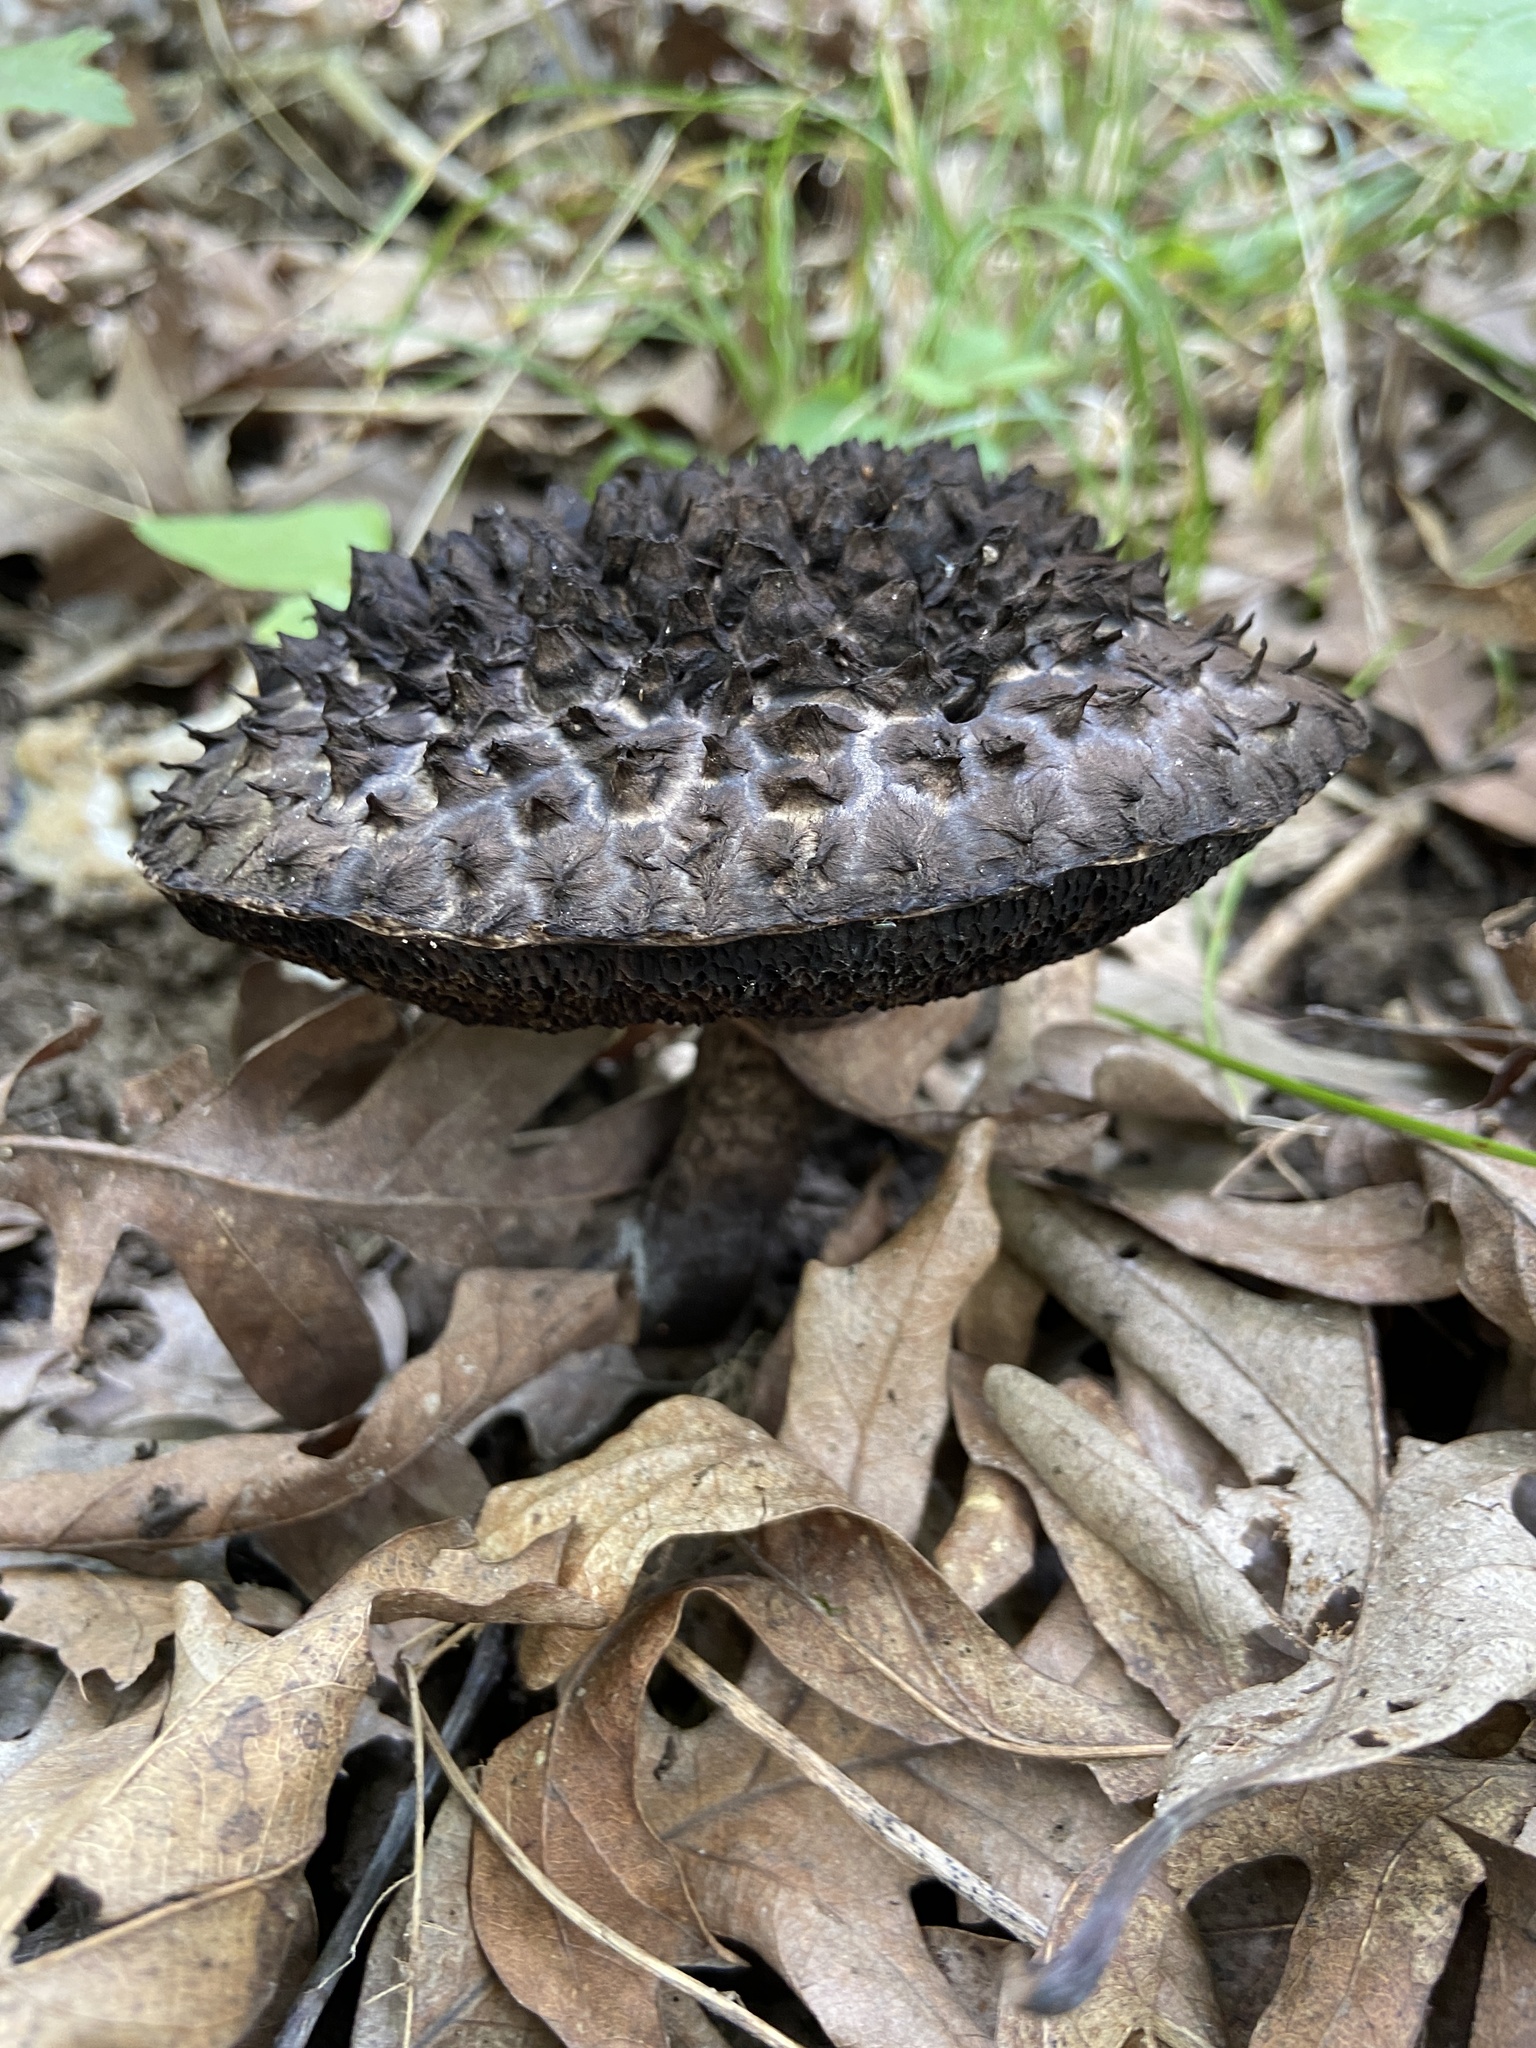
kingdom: Fungi
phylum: Basidiomycota
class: Agaricomycetes
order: Boletales
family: Boletaceae
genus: Strobilomyces
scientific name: Strobilomyces strobilaceus
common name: Old man of the woods
